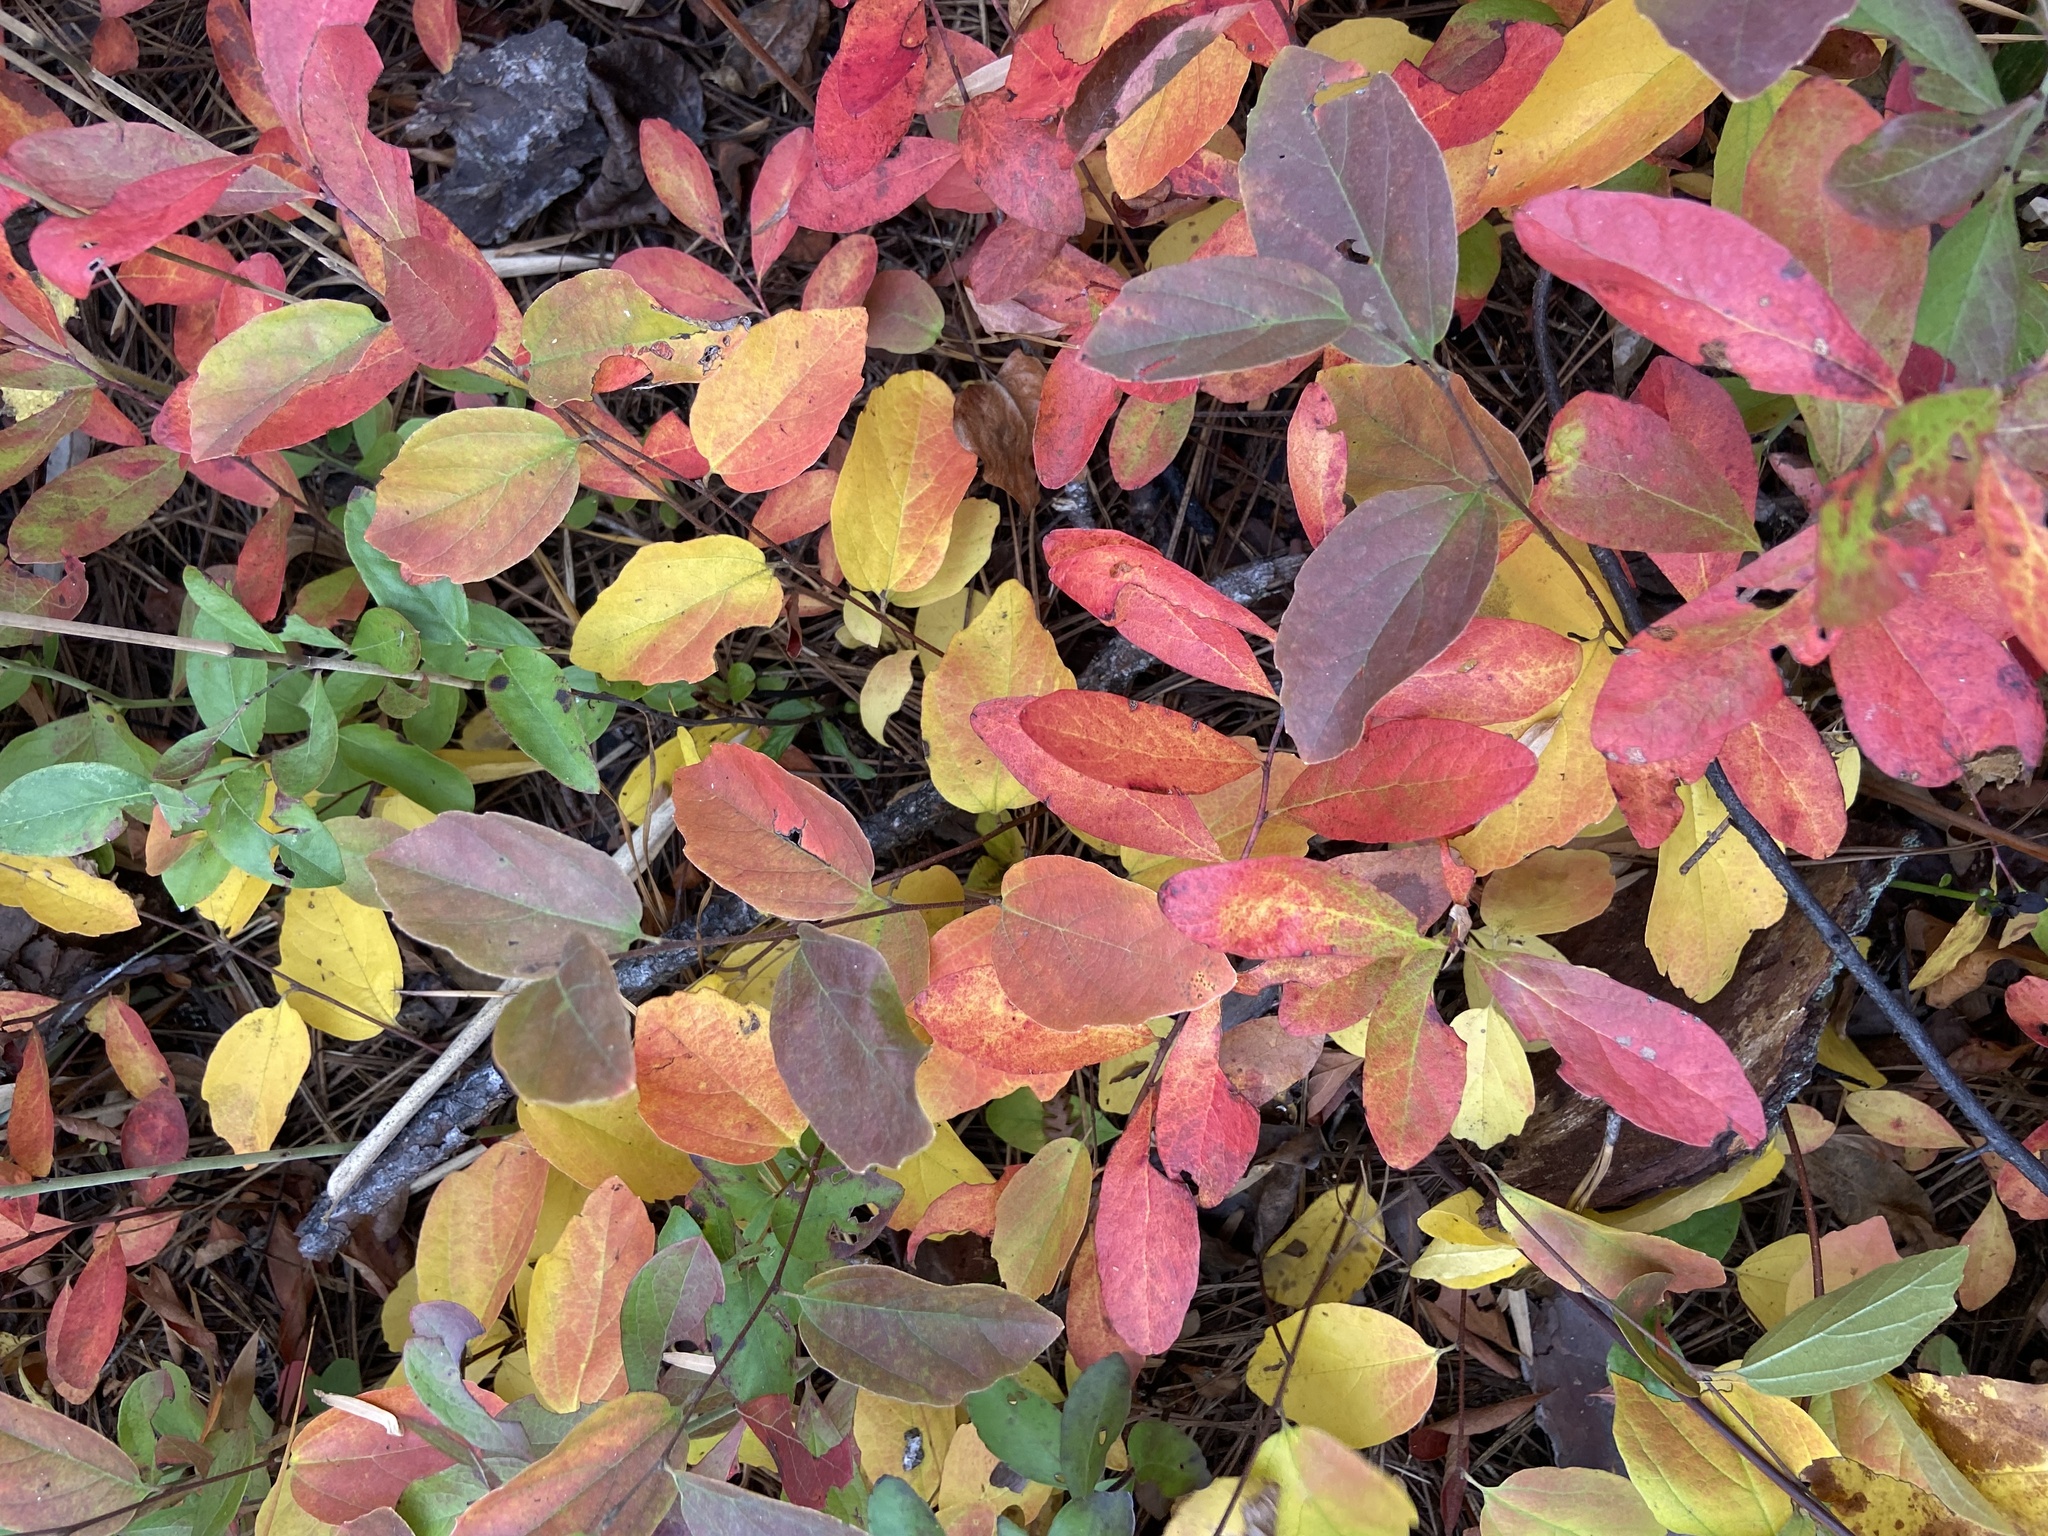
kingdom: Plantae
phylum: Tracheophyta
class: Magnoliopsida
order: Saxifragales
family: Hamamelidaceae
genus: Fothergilla
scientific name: Fothergilla gardenii
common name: Dwarf witch-alder
